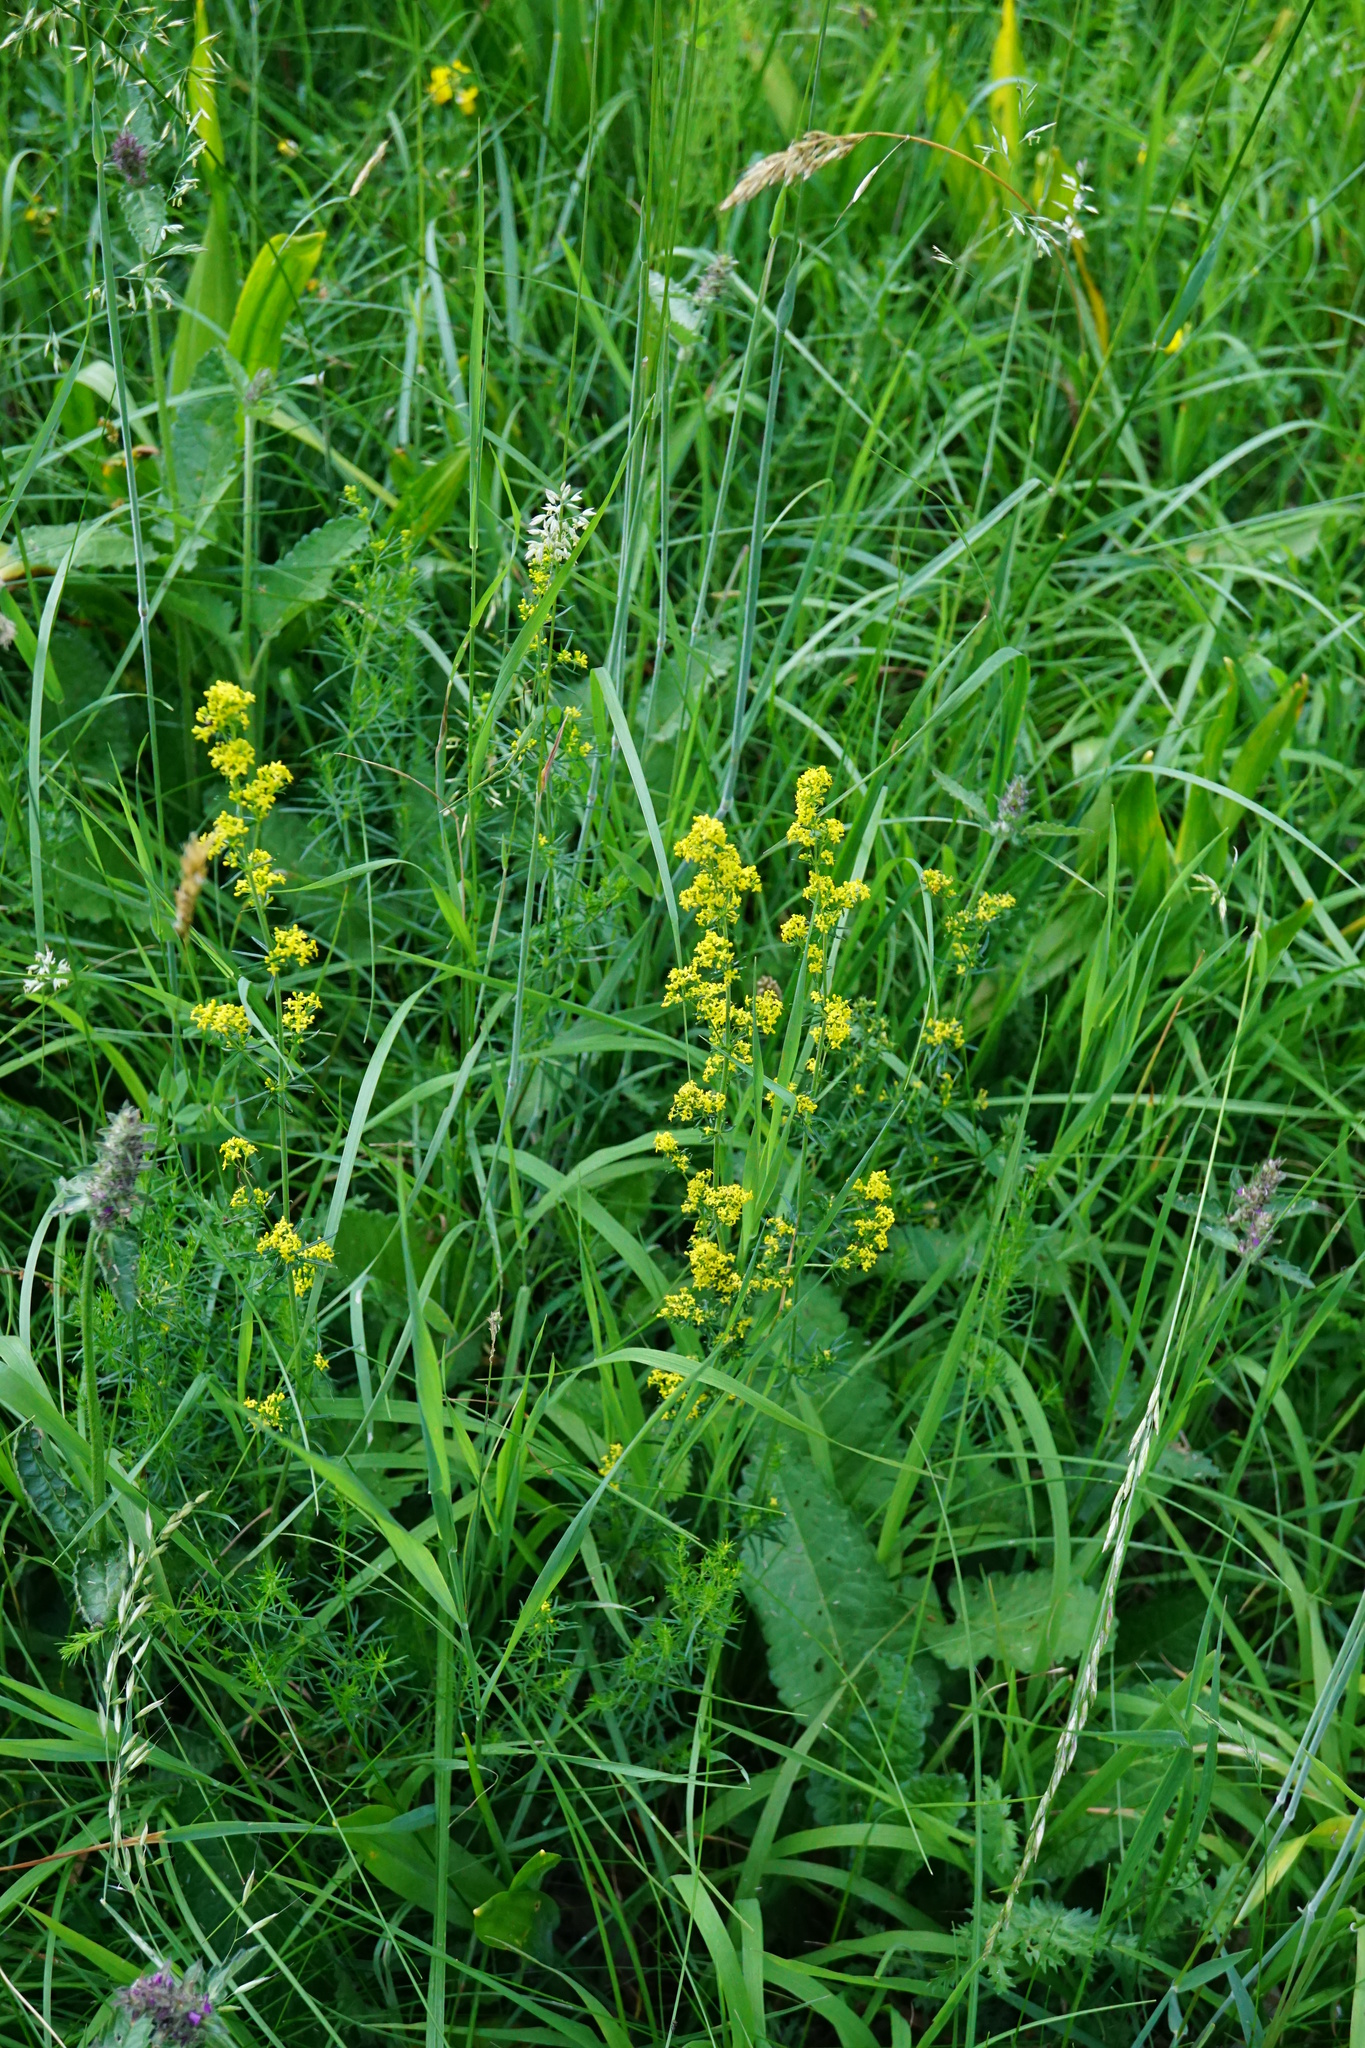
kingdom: Plantae
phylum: Tracheophyta
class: Magnoliopsida
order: Gentianales
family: Rubiaceae
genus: Galium
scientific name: Galium verum
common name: Lady's bedstraw
